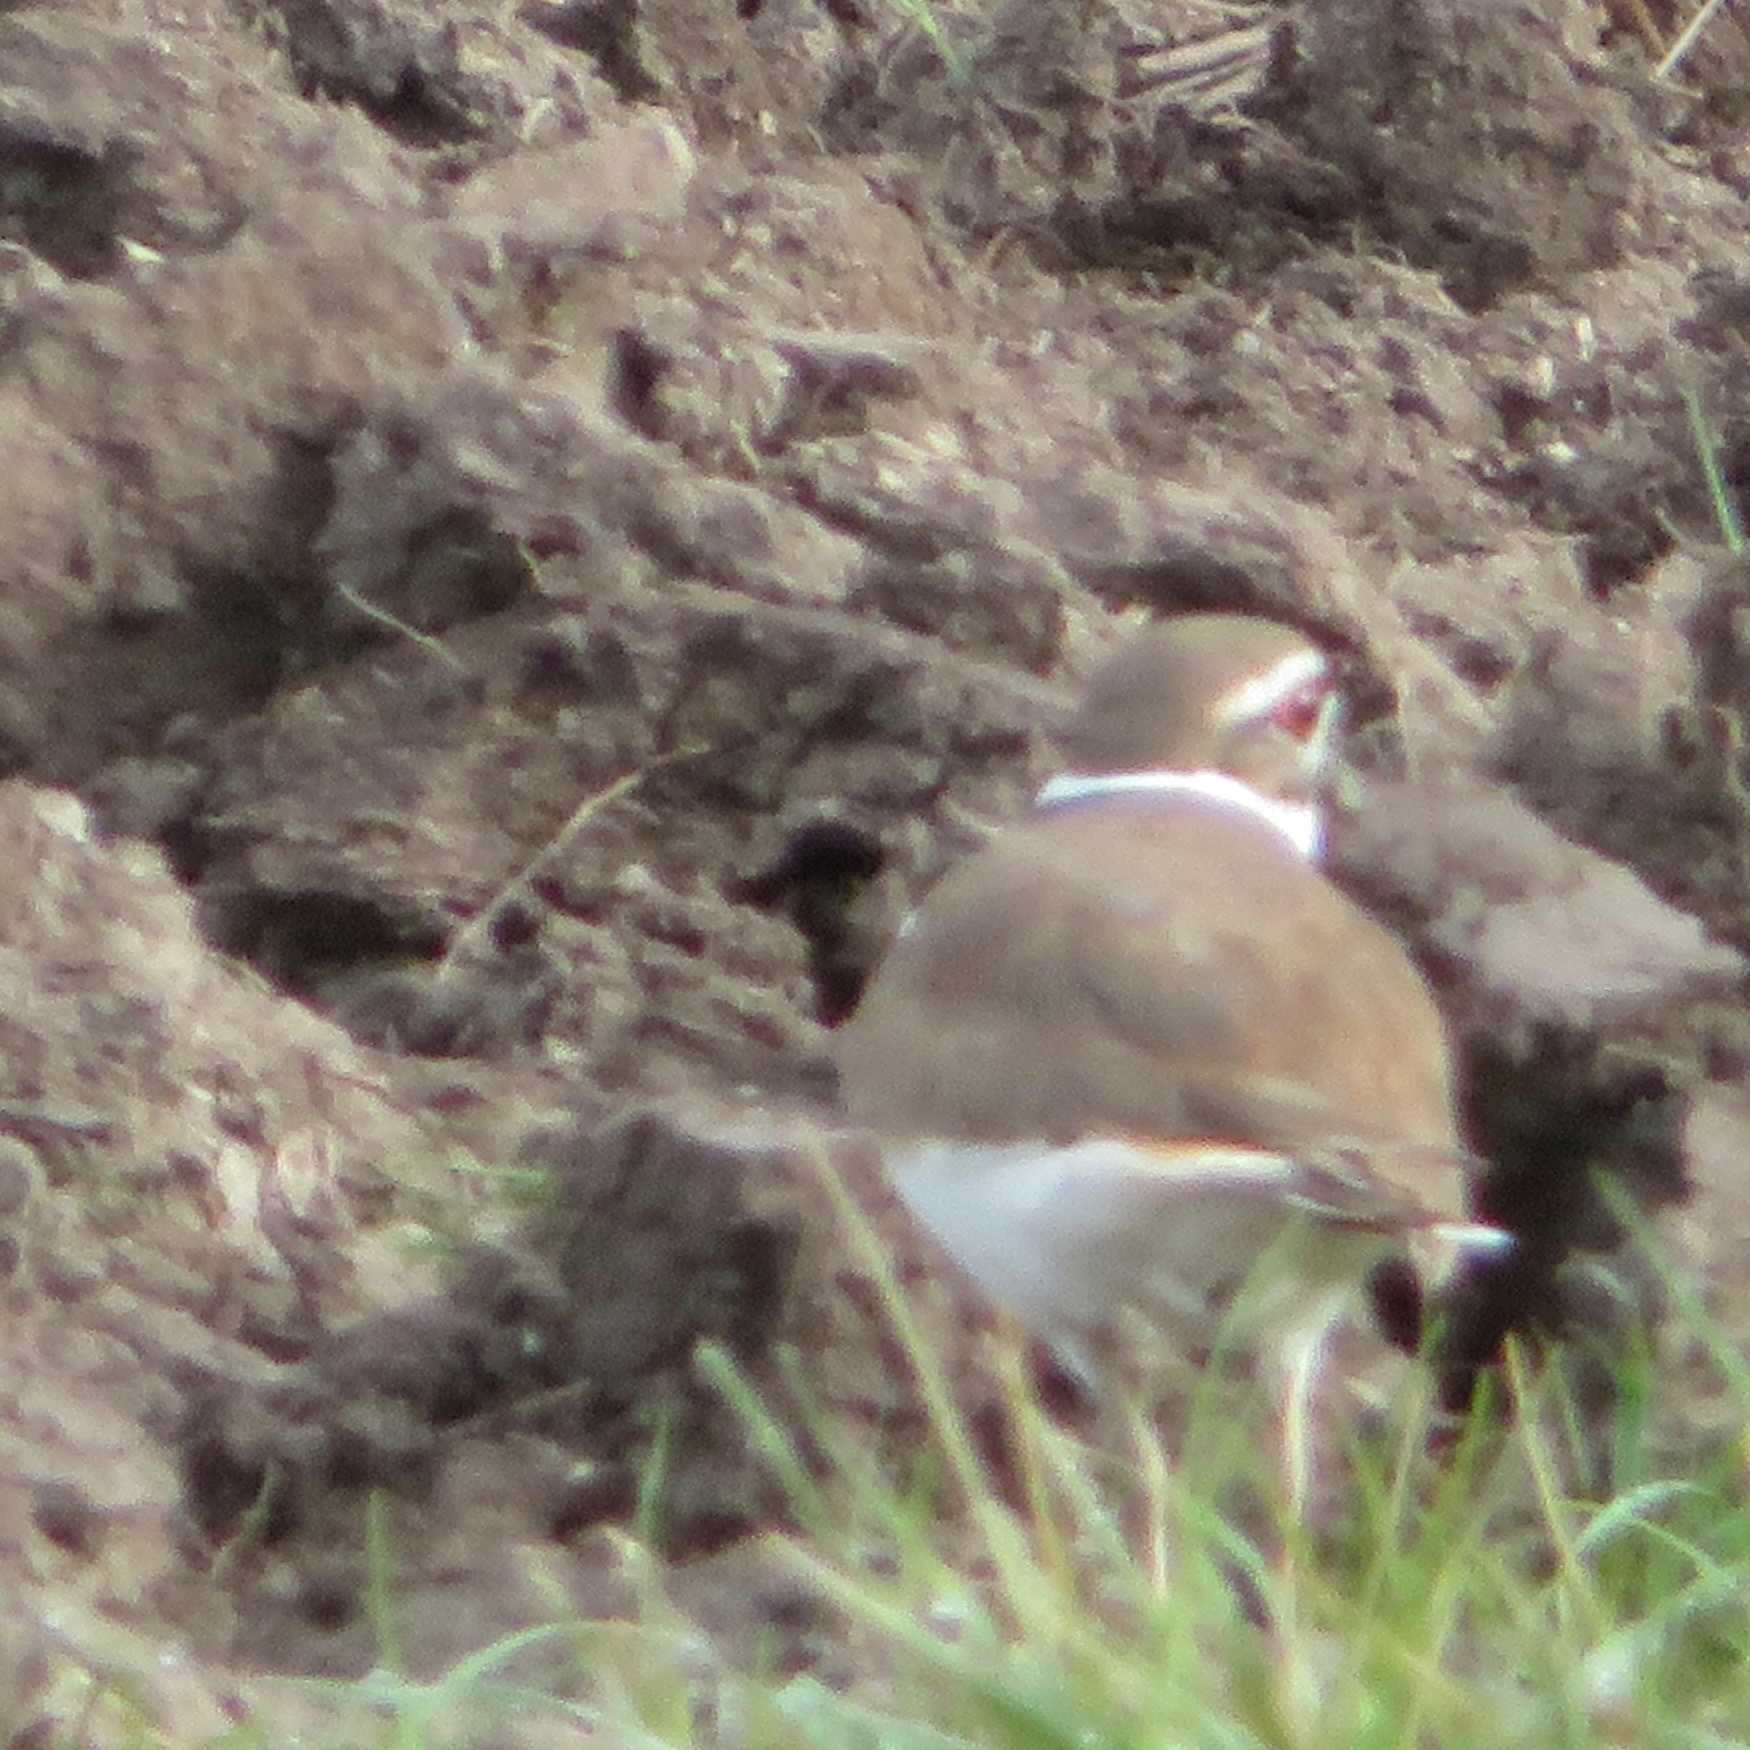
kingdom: Animalia
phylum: Chordata
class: Aves
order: Charadriiformes
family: Charadriidae
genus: Charadrius
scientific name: Charadrius vociferus
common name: Killdeer
